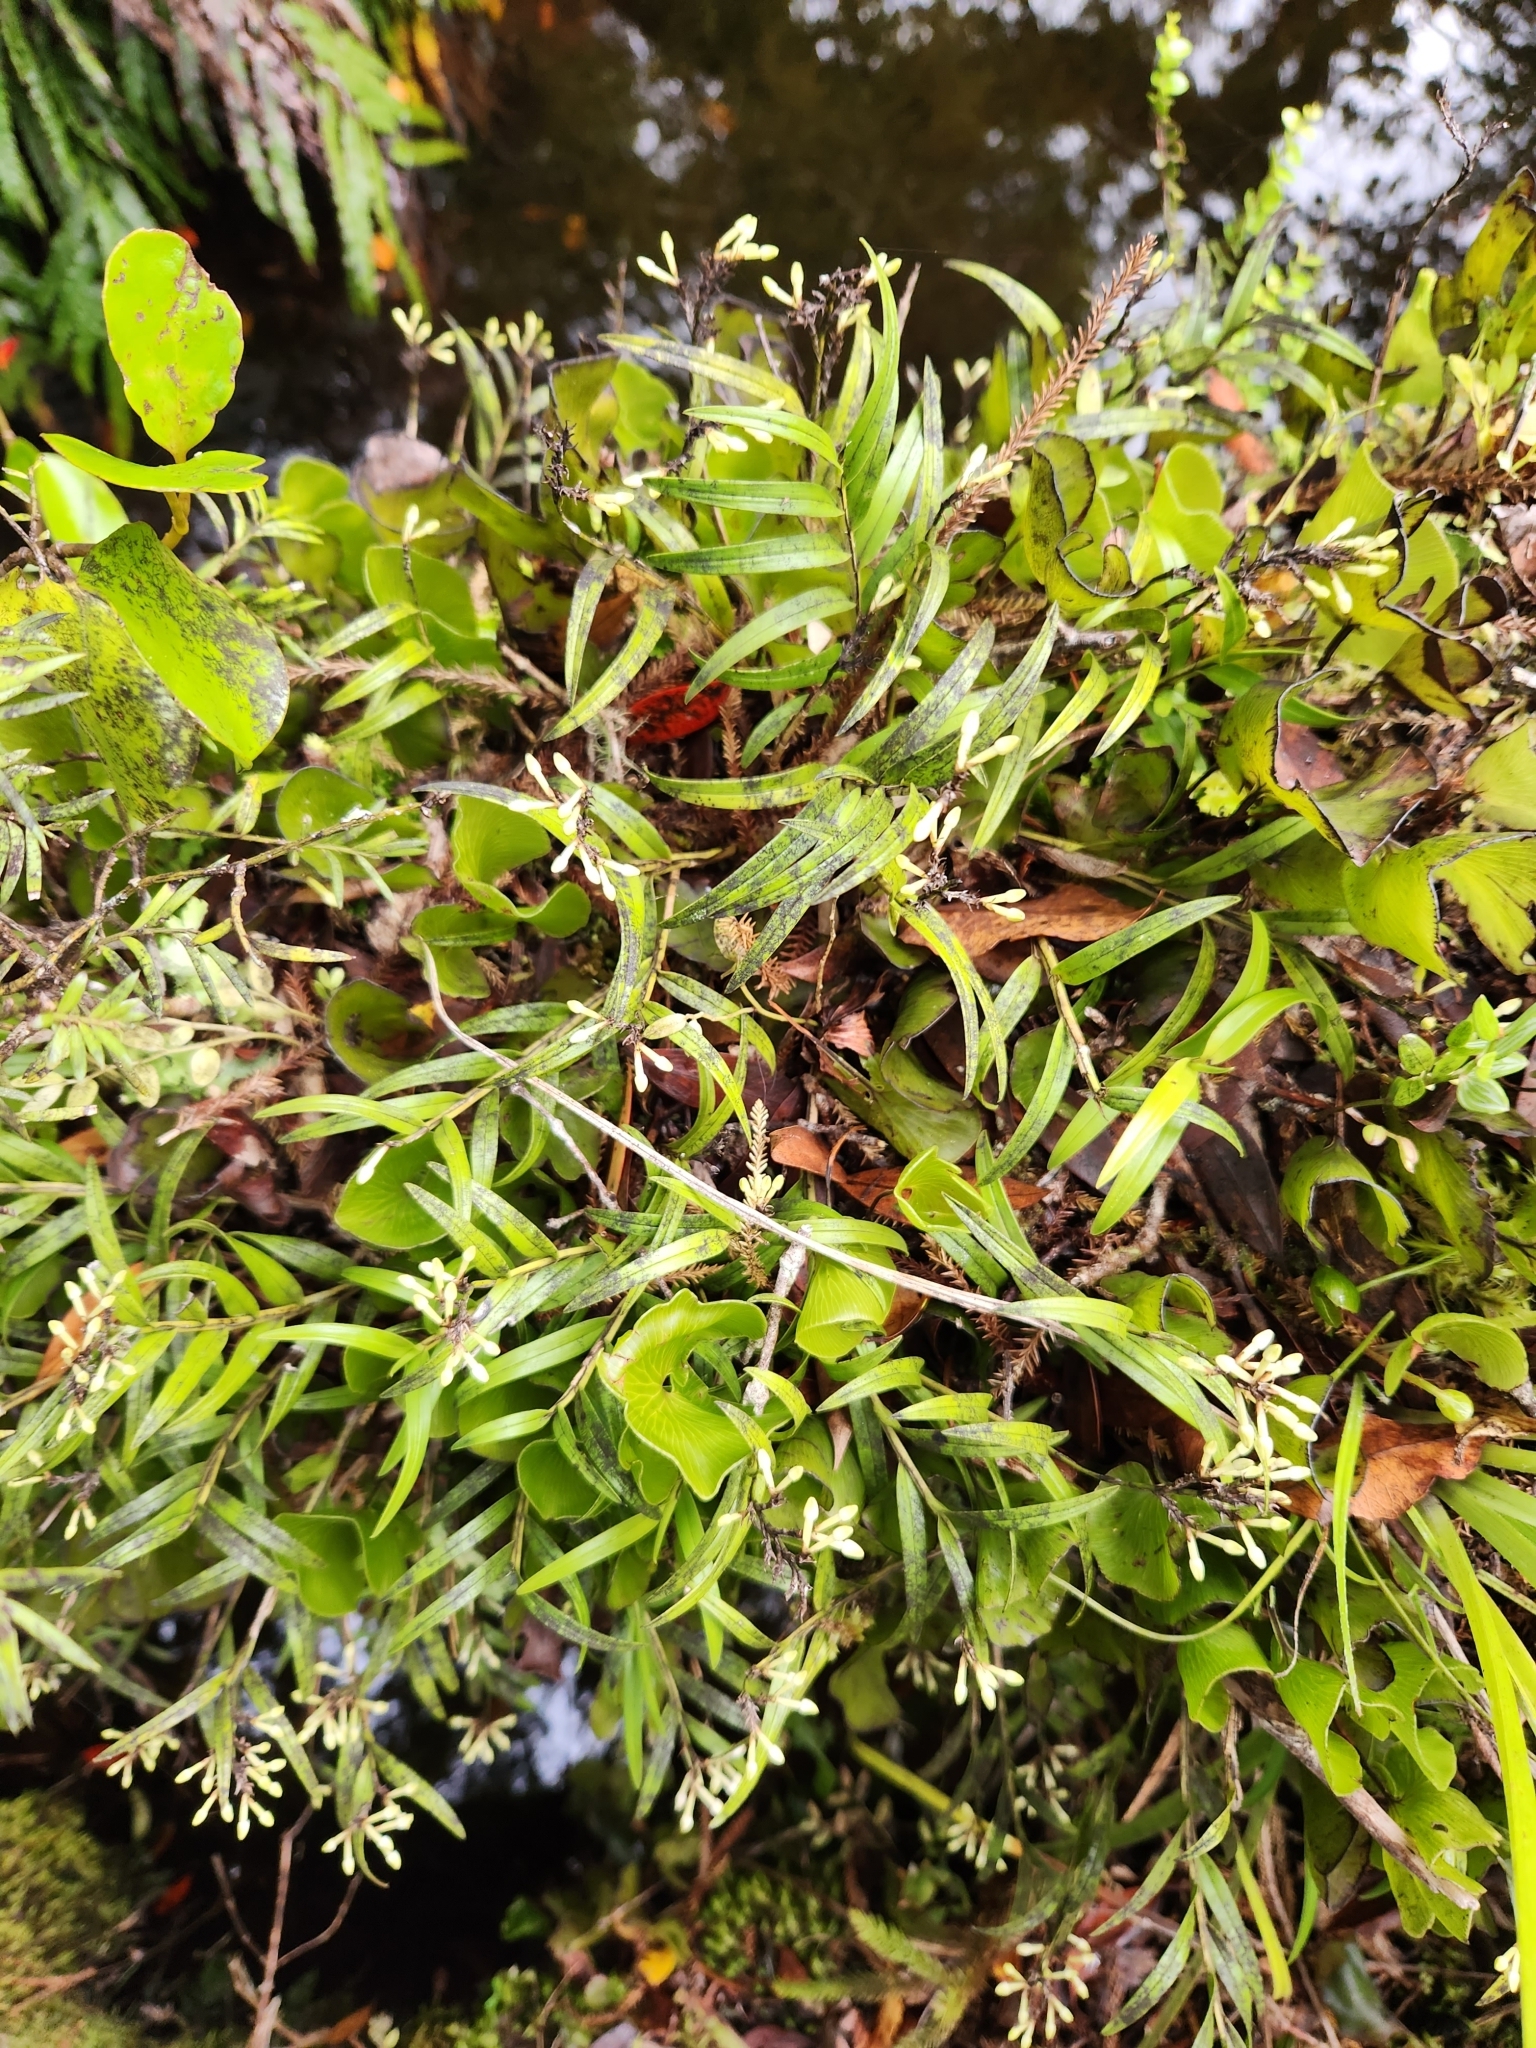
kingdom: Plantae
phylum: Tracheophyta
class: Liliopsida
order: Asparagales
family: Orchidaceae
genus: Earina
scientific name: Earina autumnalis
